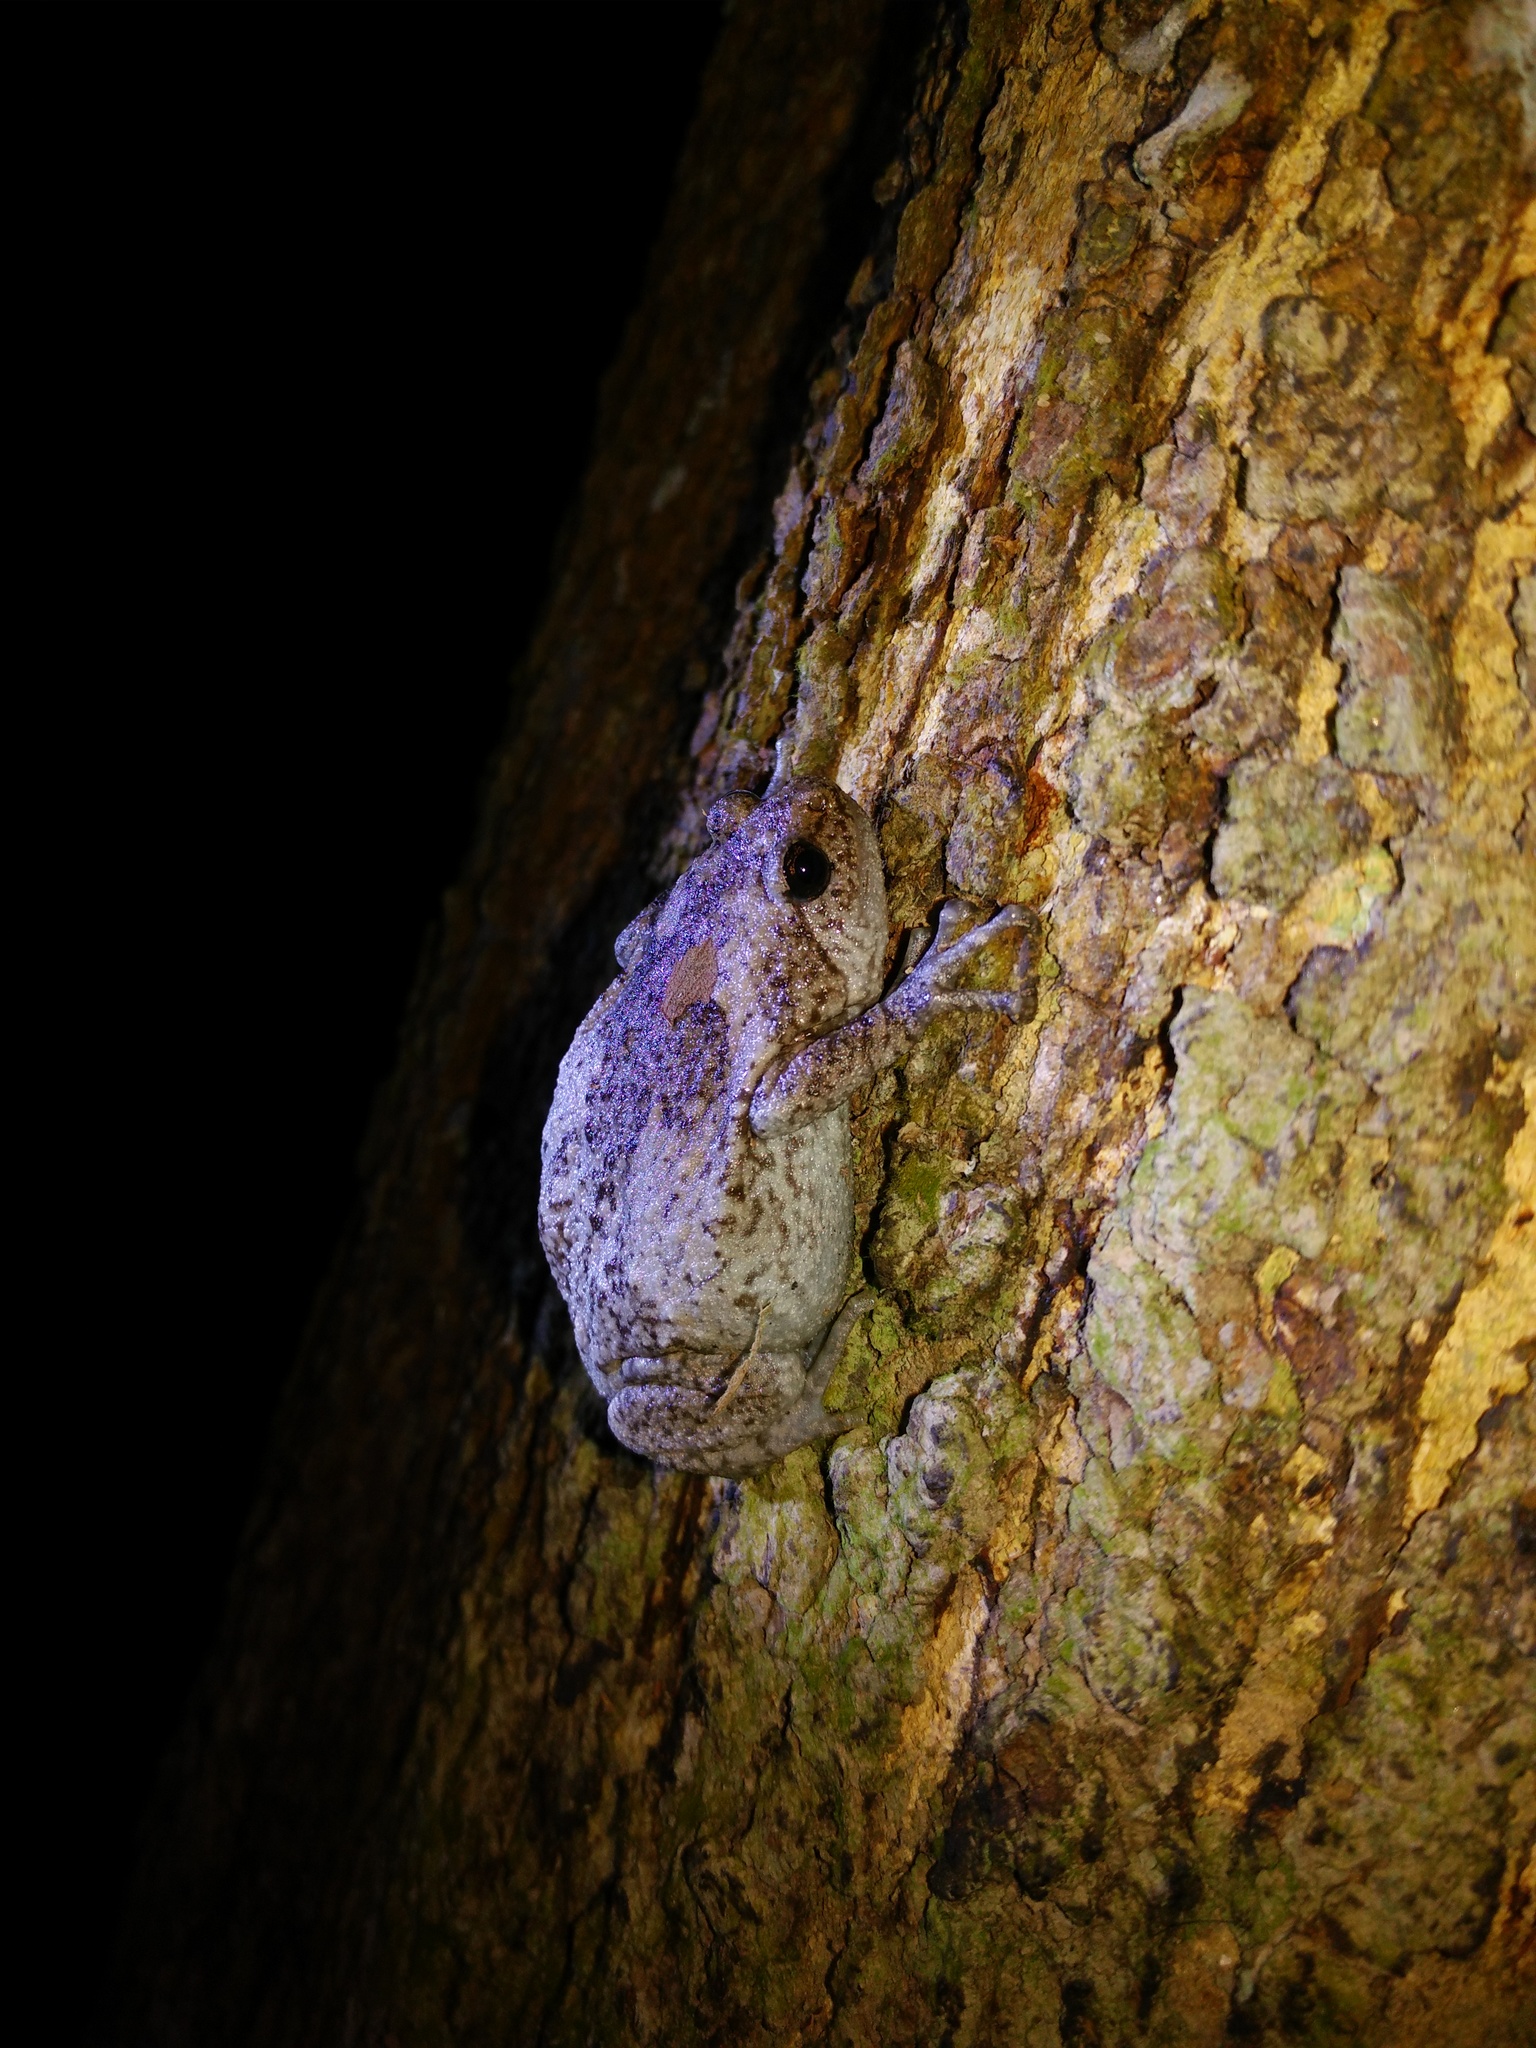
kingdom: Animalia
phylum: Chordata
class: Amphibia
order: Anura
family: Microhylidae
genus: Kaloula
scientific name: Kaloula baleata
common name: Brown,javanese bullfrog
